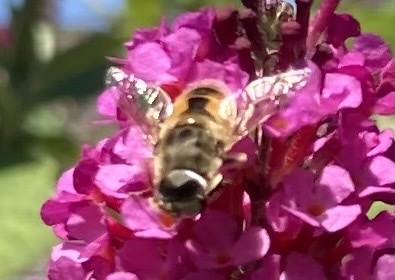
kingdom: Animalia
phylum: Arthropoda
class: Insecta
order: Diptera
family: Syrphidae
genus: Eristalis
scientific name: Eristalis arbustorum
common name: Hover fly
